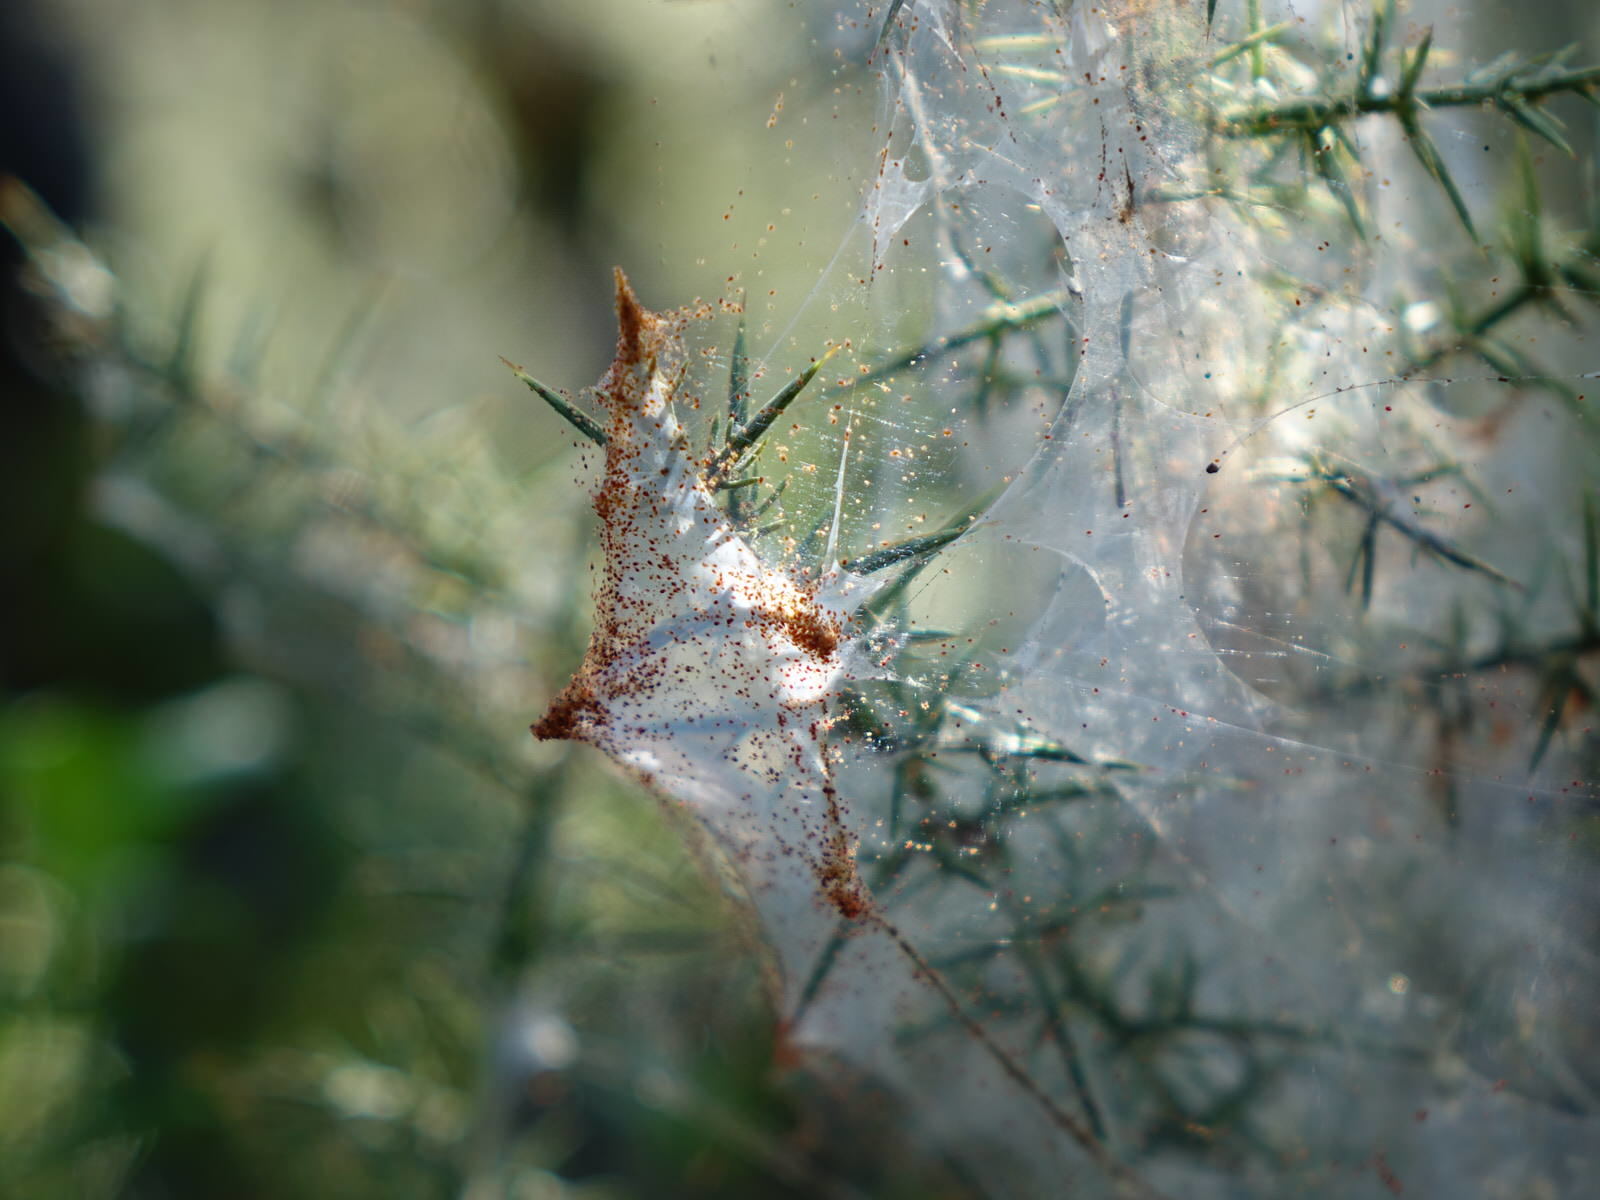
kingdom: Animalia
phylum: Arthropoda
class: Arachnida
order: Trombidiformes
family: Tetranychidae
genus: Tetranychus
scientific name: Tetranychus lintearius
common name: Gorse spider mite
